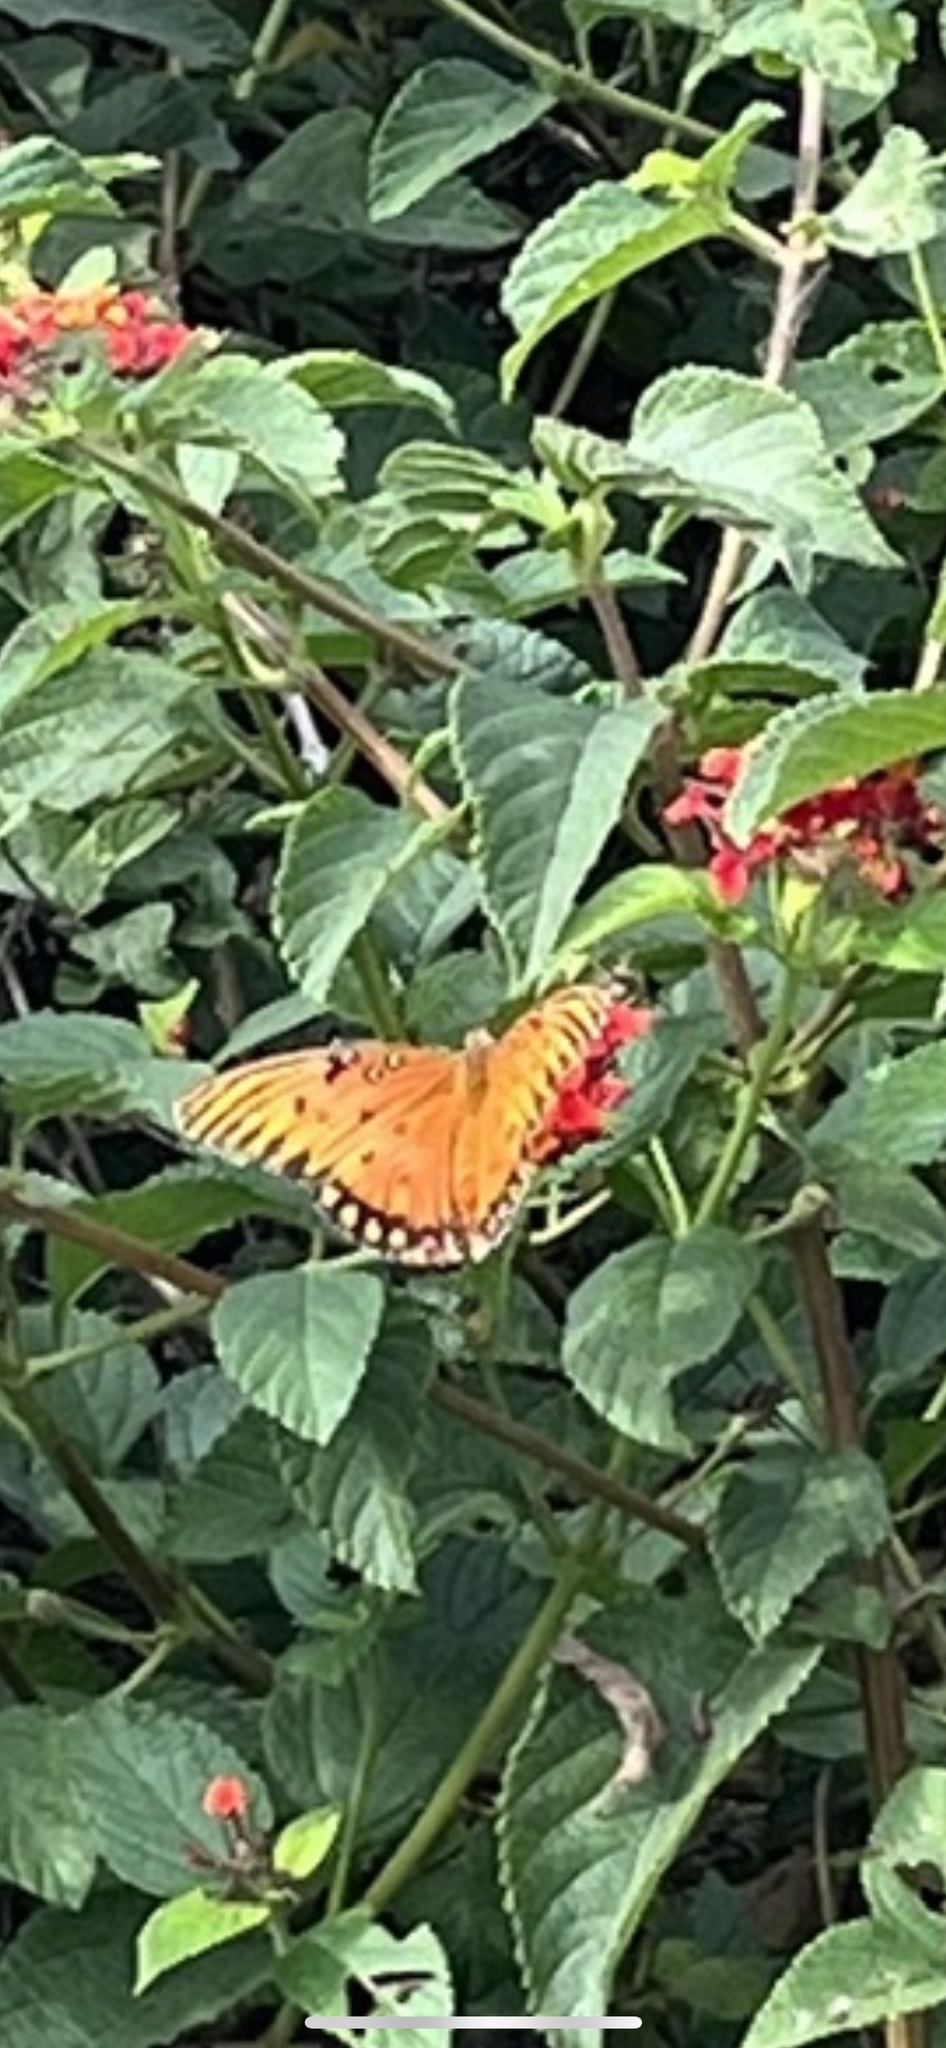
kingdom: Animalia
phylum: Arthropoda
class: Insecta
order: Lepidoptera
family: Nymphalidae
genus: Dione
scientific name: Dione vanillae
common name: Gulf fritillary
